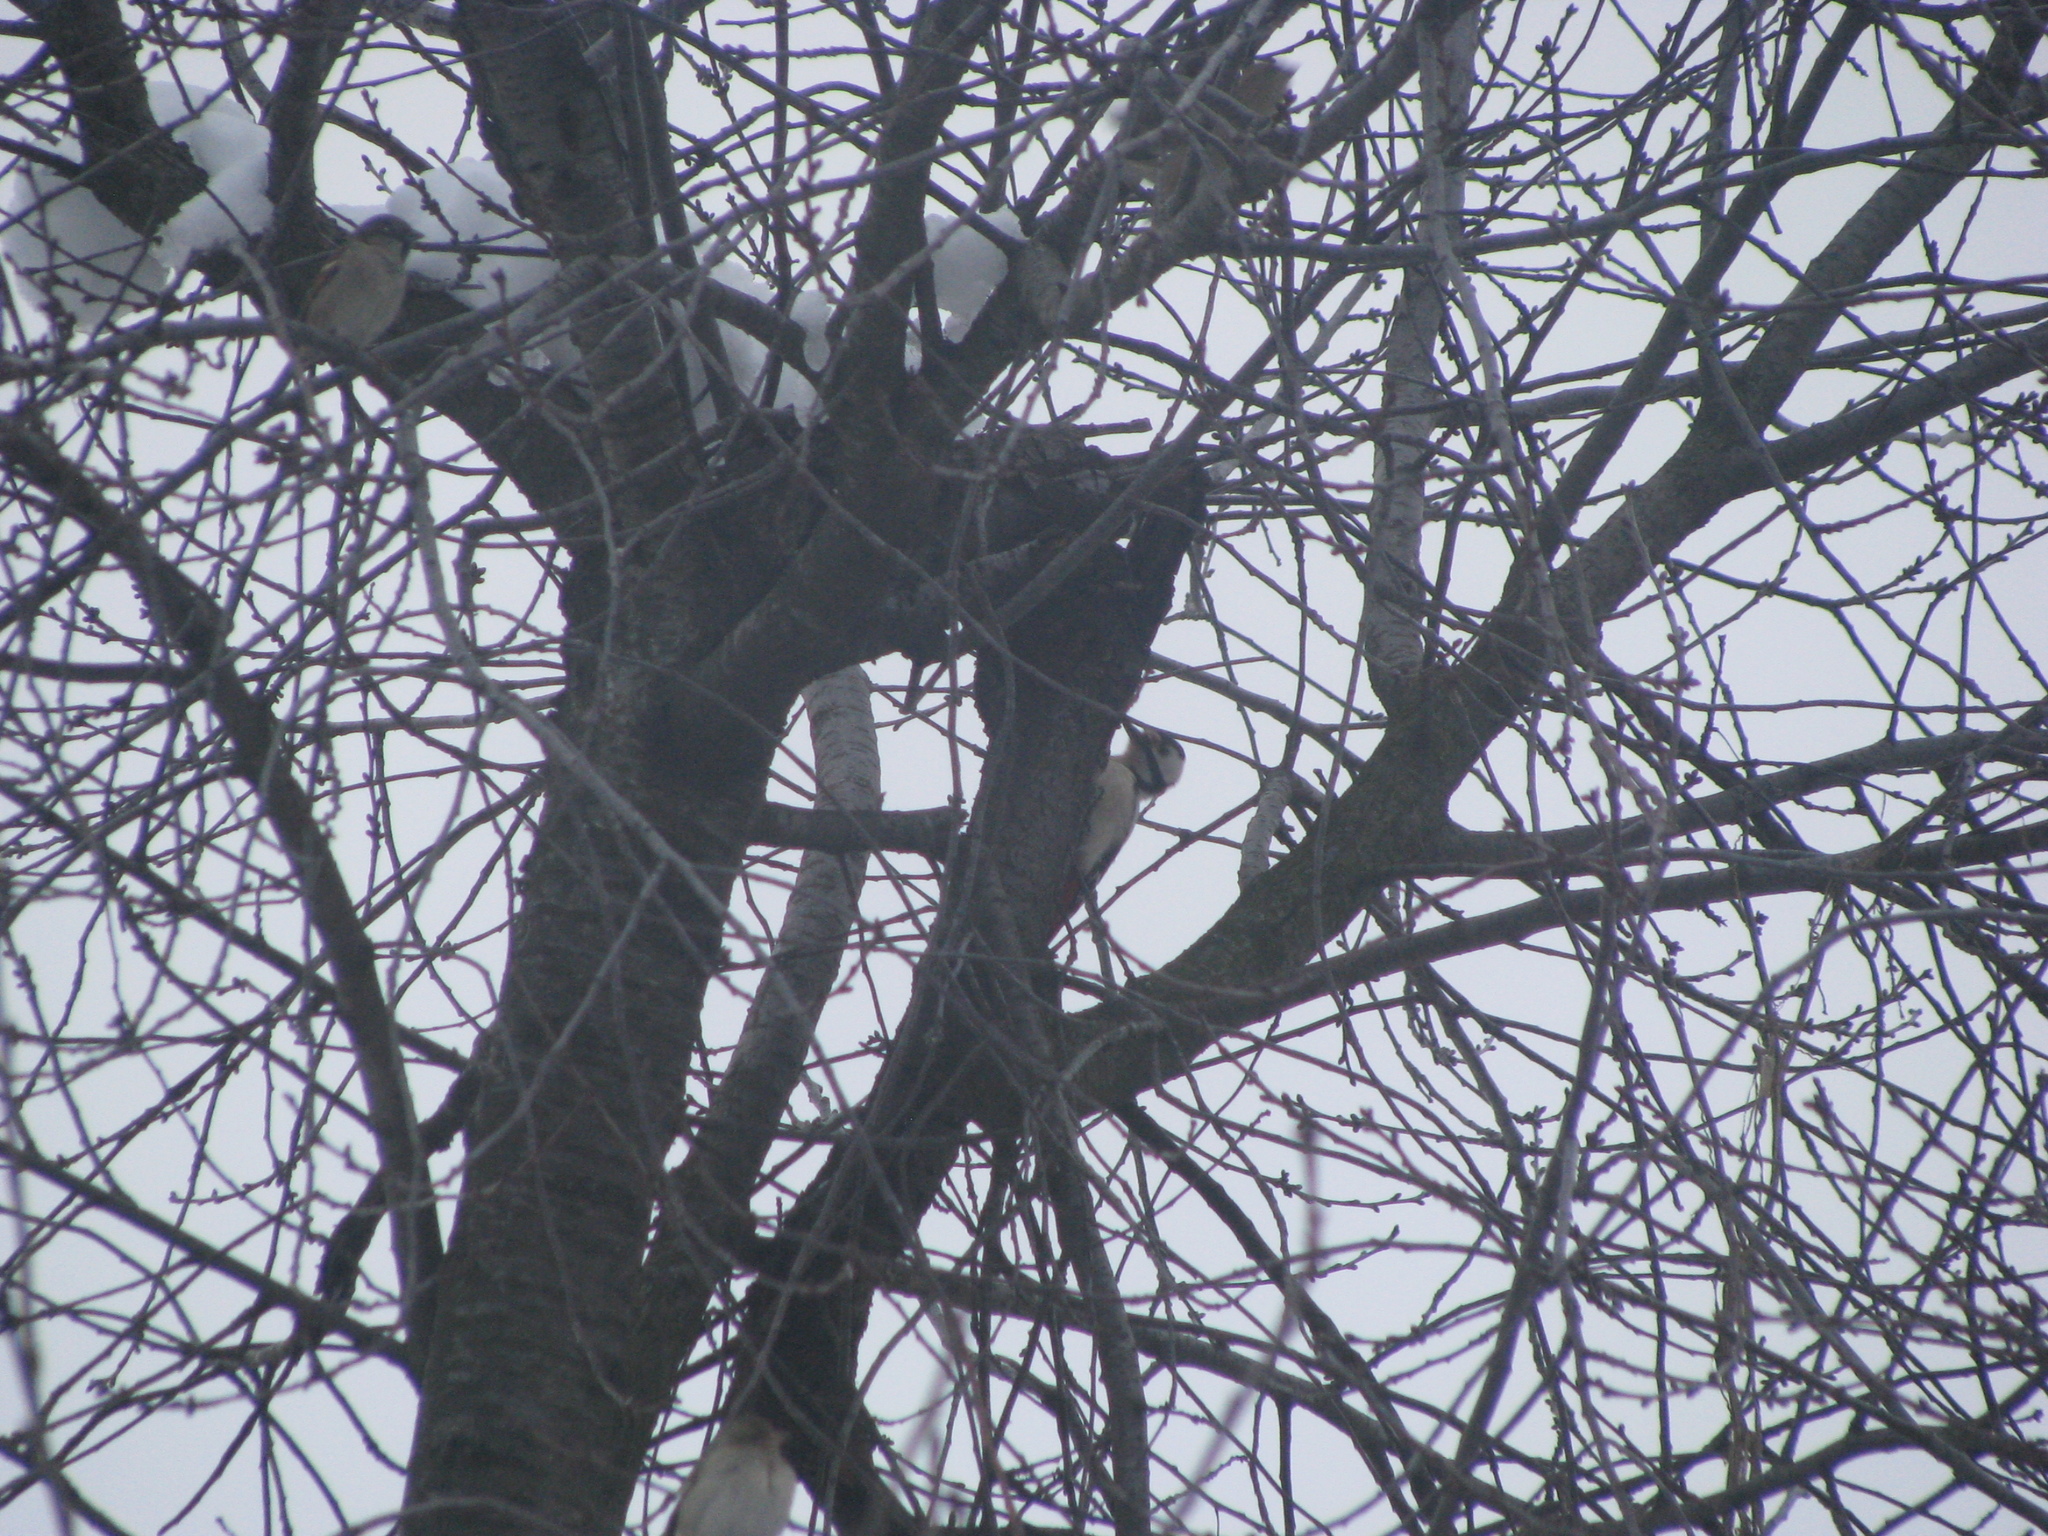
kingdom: Animalia
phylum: Chordata
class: Aves
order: Piciformes
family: Picidae
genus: Dendrocopos
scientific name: Dendrocopos major
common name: Great spotted woodpecker
